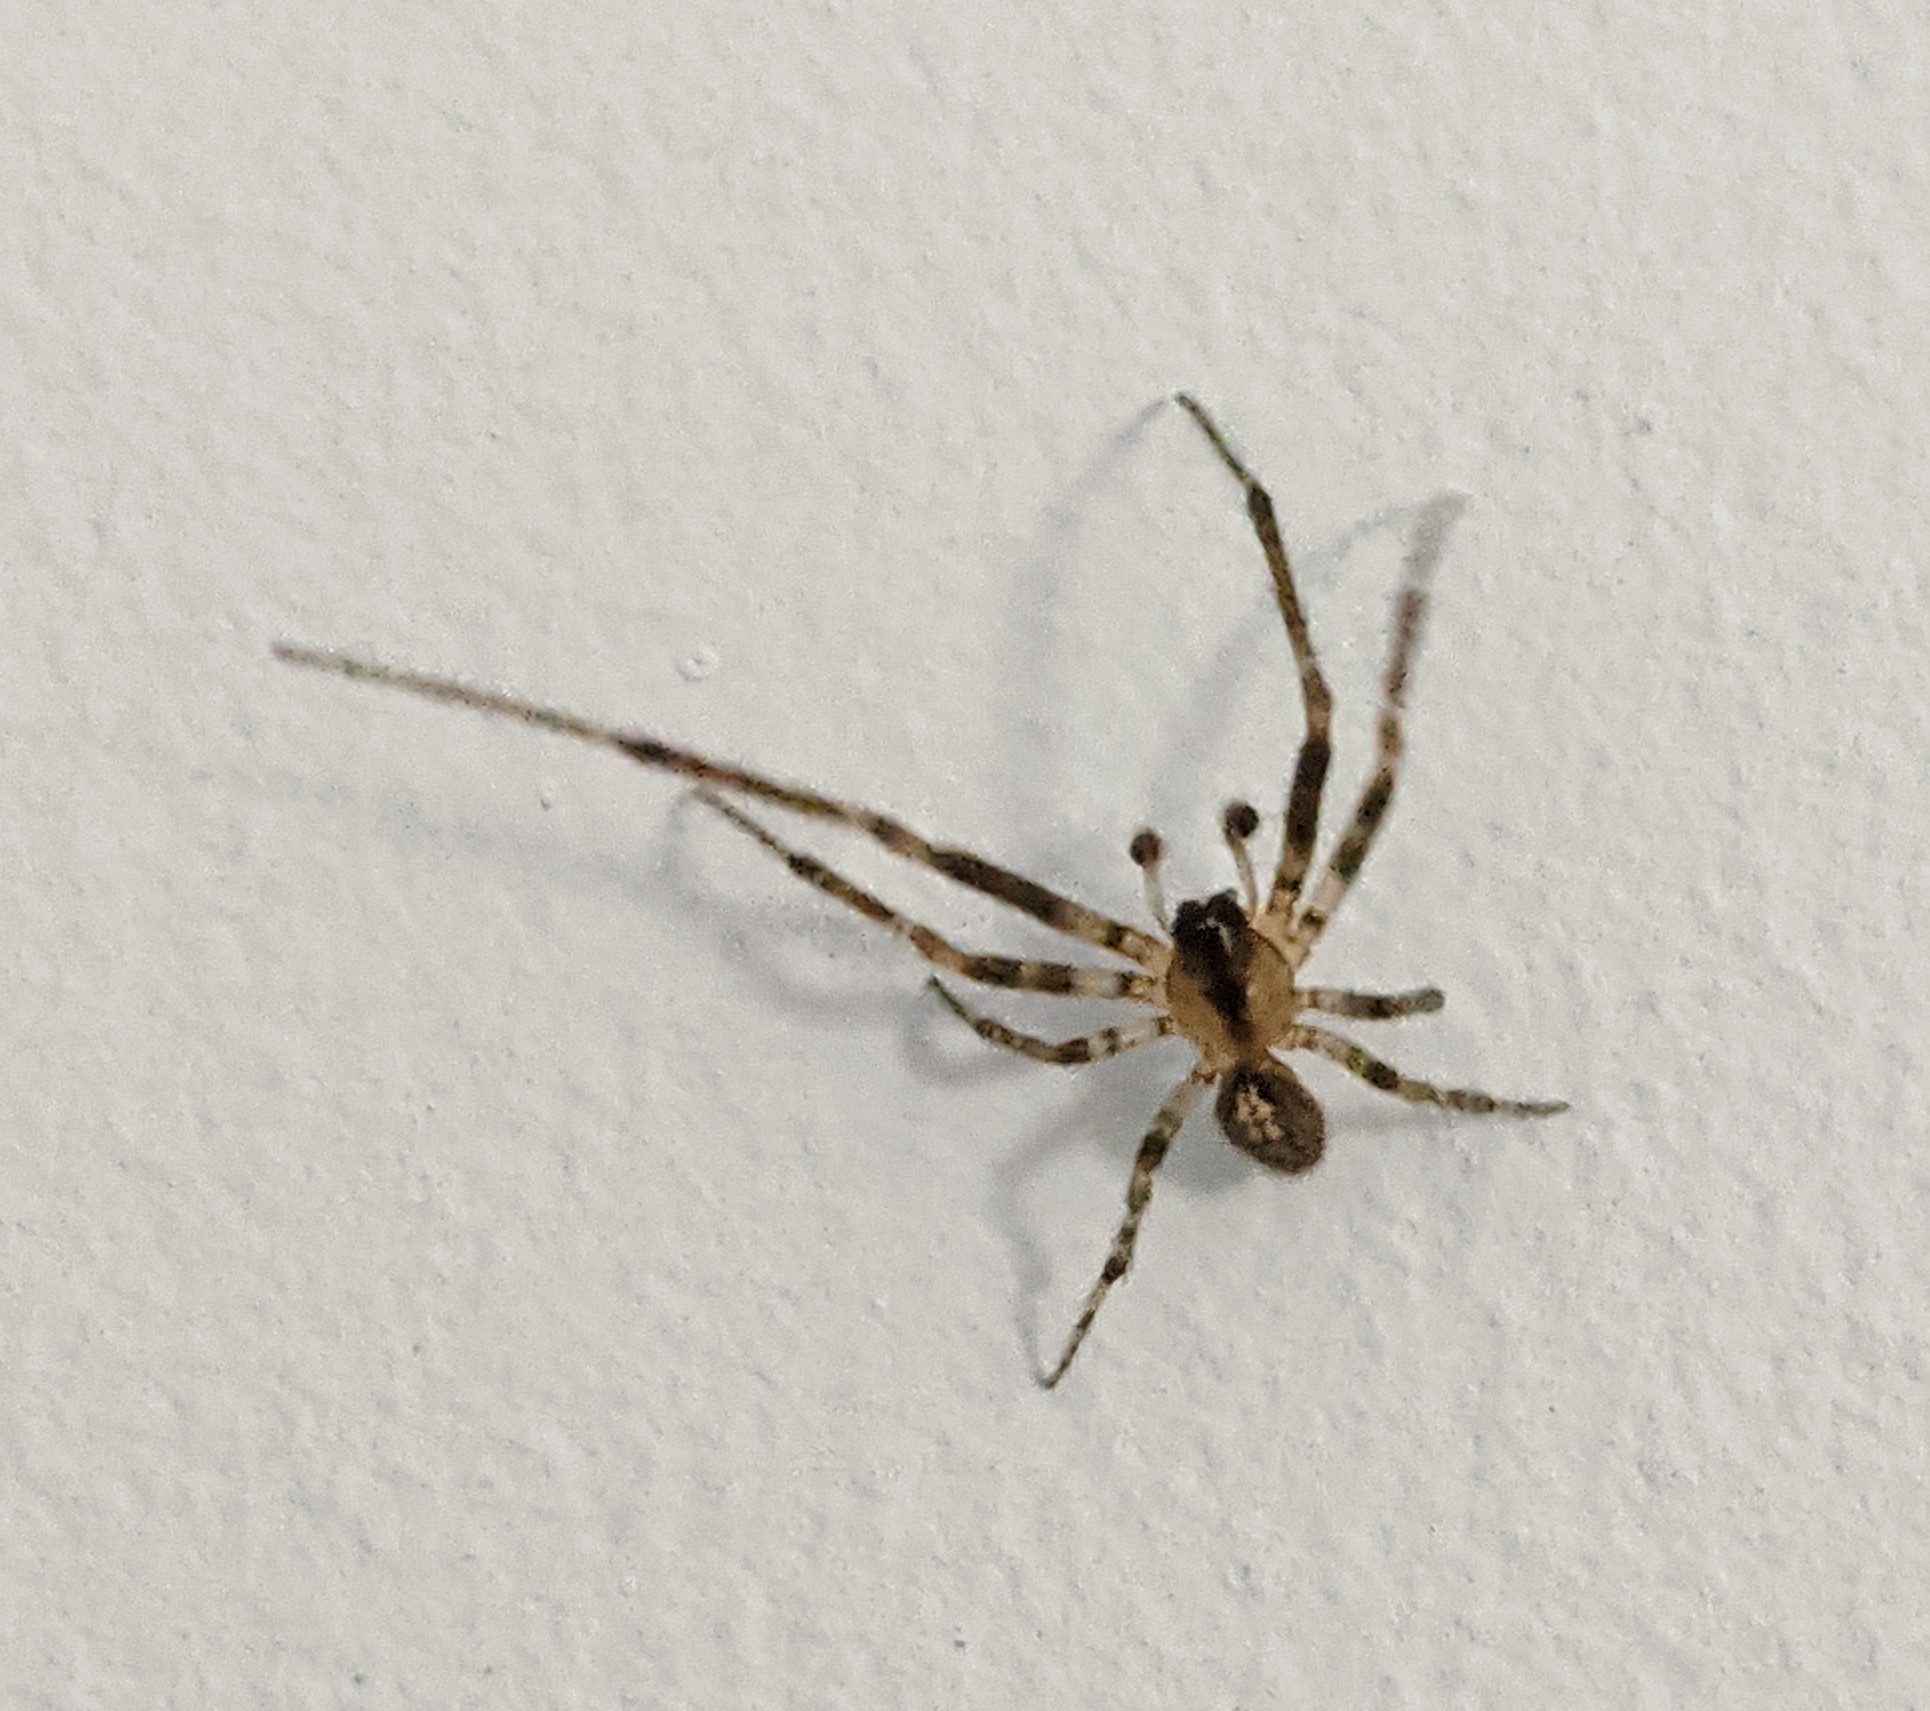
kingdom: Animalia
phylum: Arthropoda
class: Arachnida
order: Araneae
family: Araneidae
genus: Zygiella
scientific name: Zygiella x-notata
